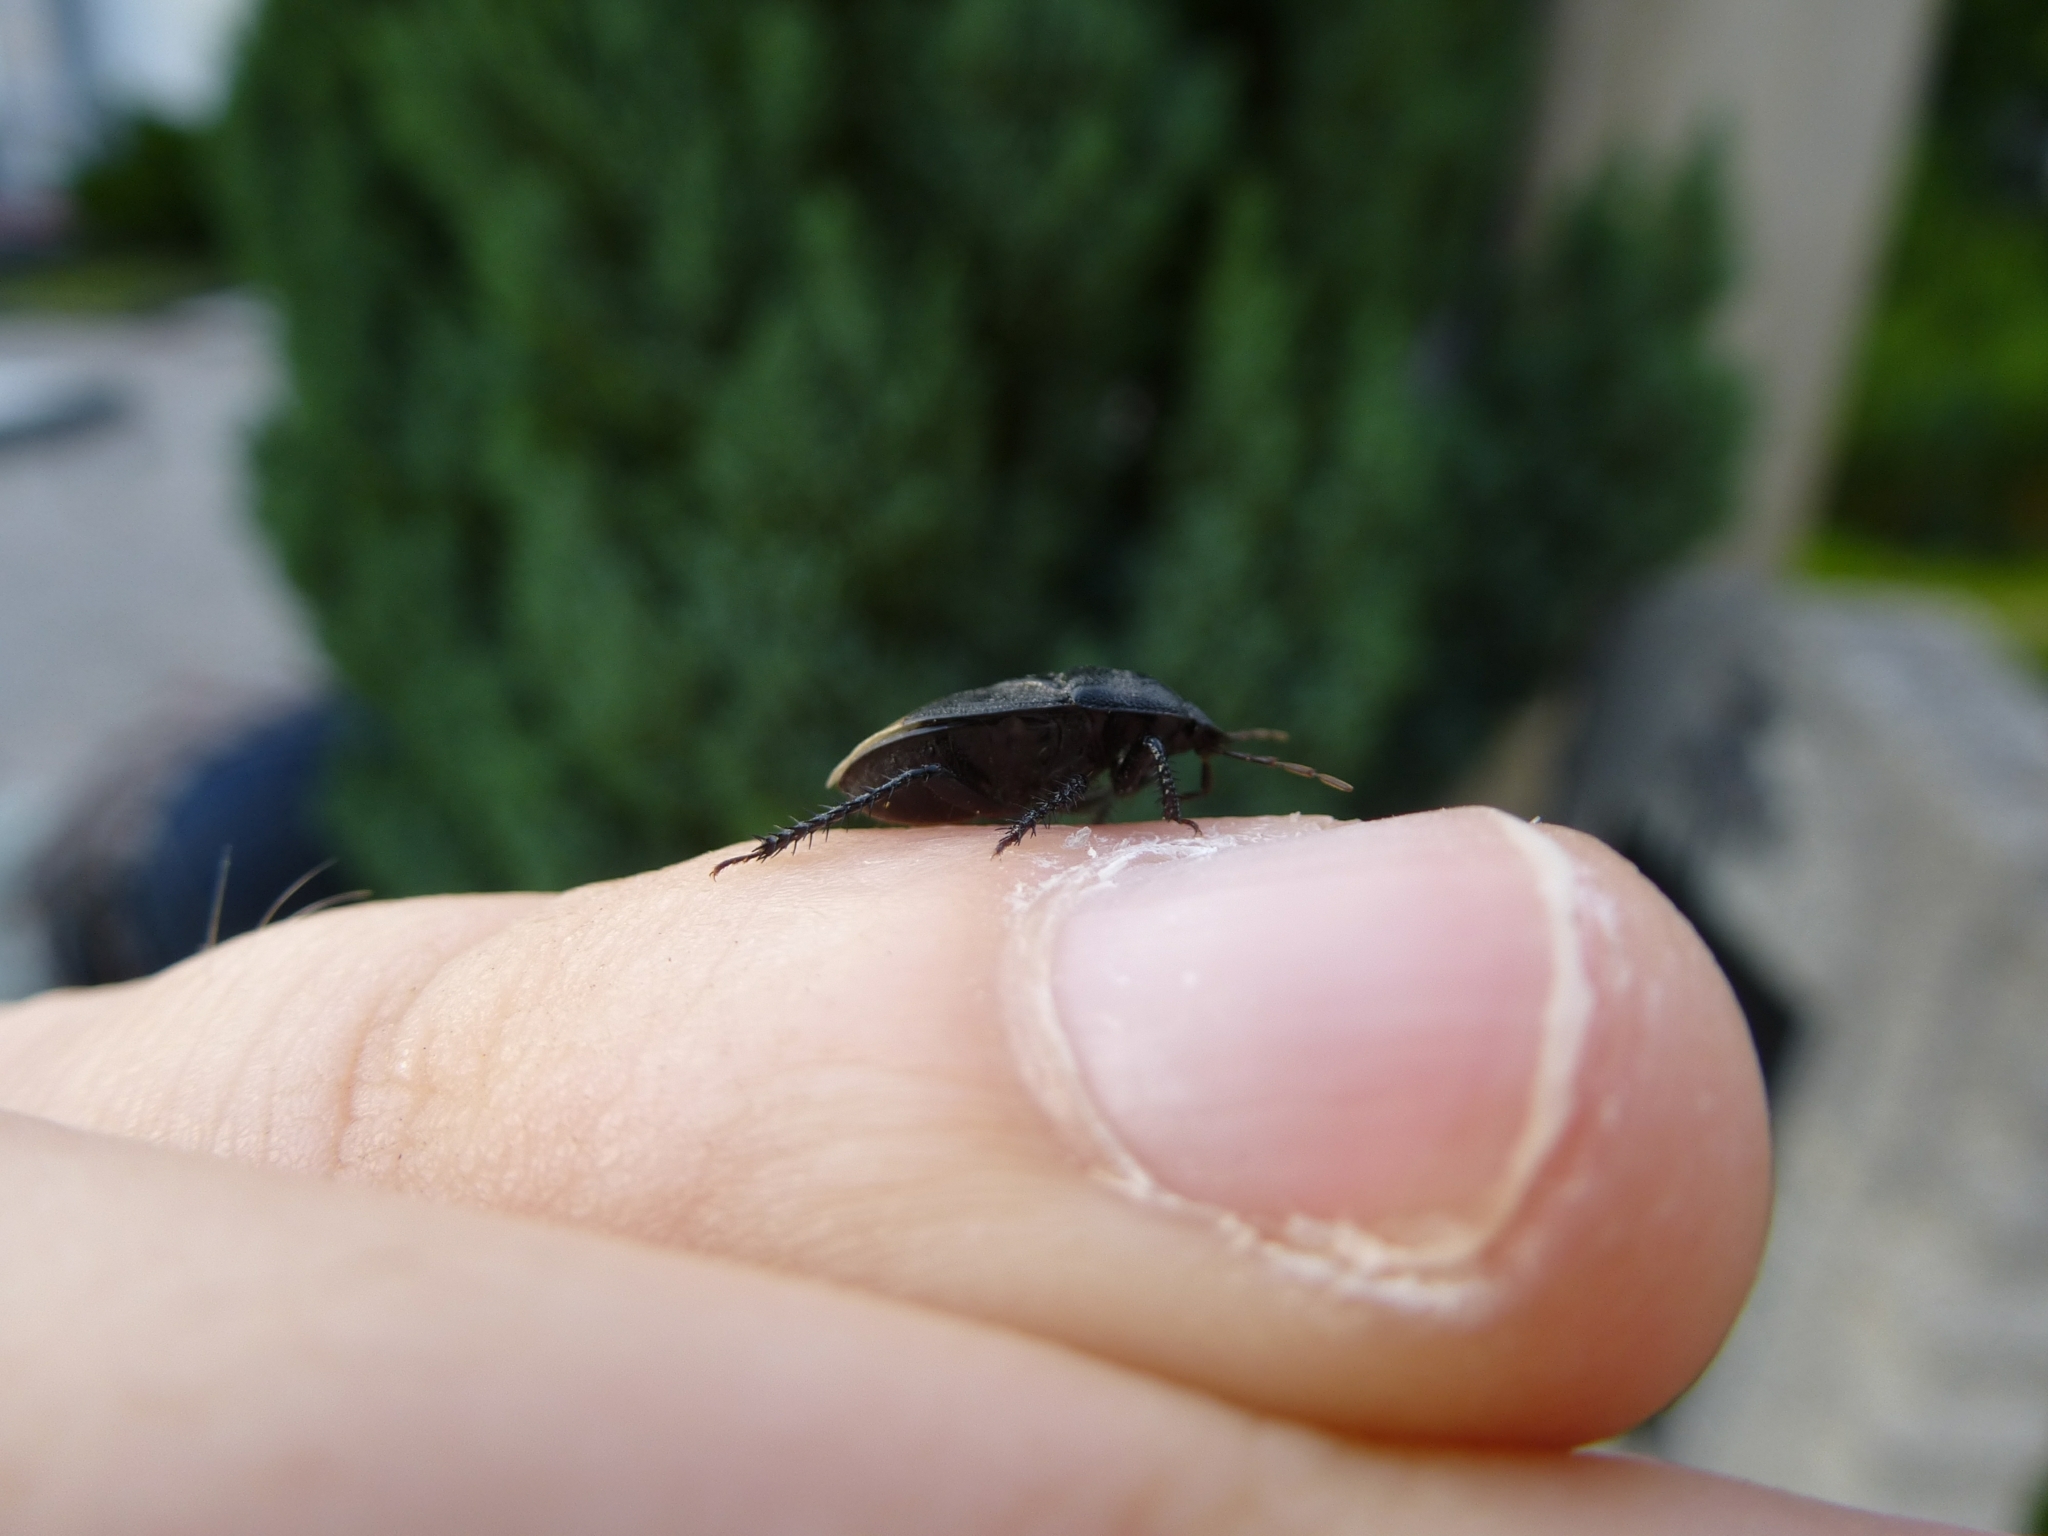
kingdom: Animalia
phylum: Arthropoda
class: Insecta
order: Hemiptera
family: Cydnidae
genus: Cydnus
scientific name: Cydnus aterrimus
